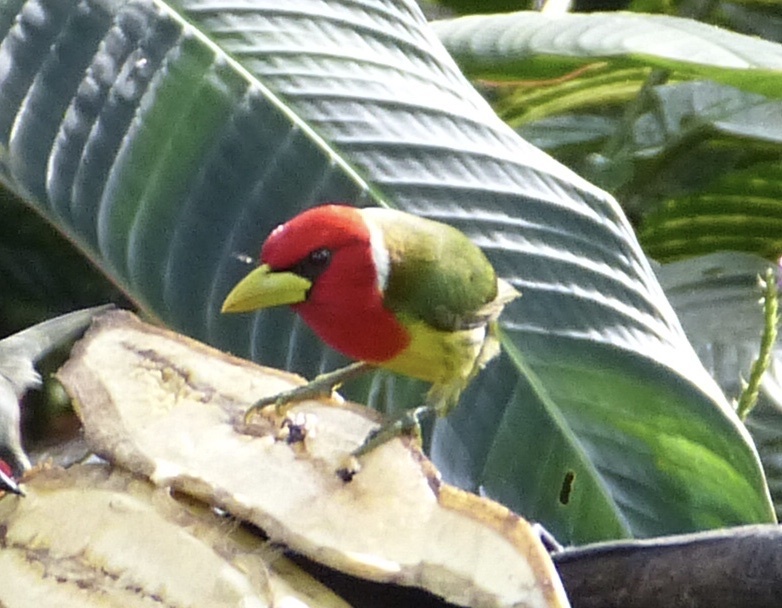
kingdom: Animalia
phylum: Chordata
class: Aves
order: Piciformes
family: Capitonidae
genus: Eubucco
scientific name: Eubucco bourcierii
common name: Red-headed barbet
